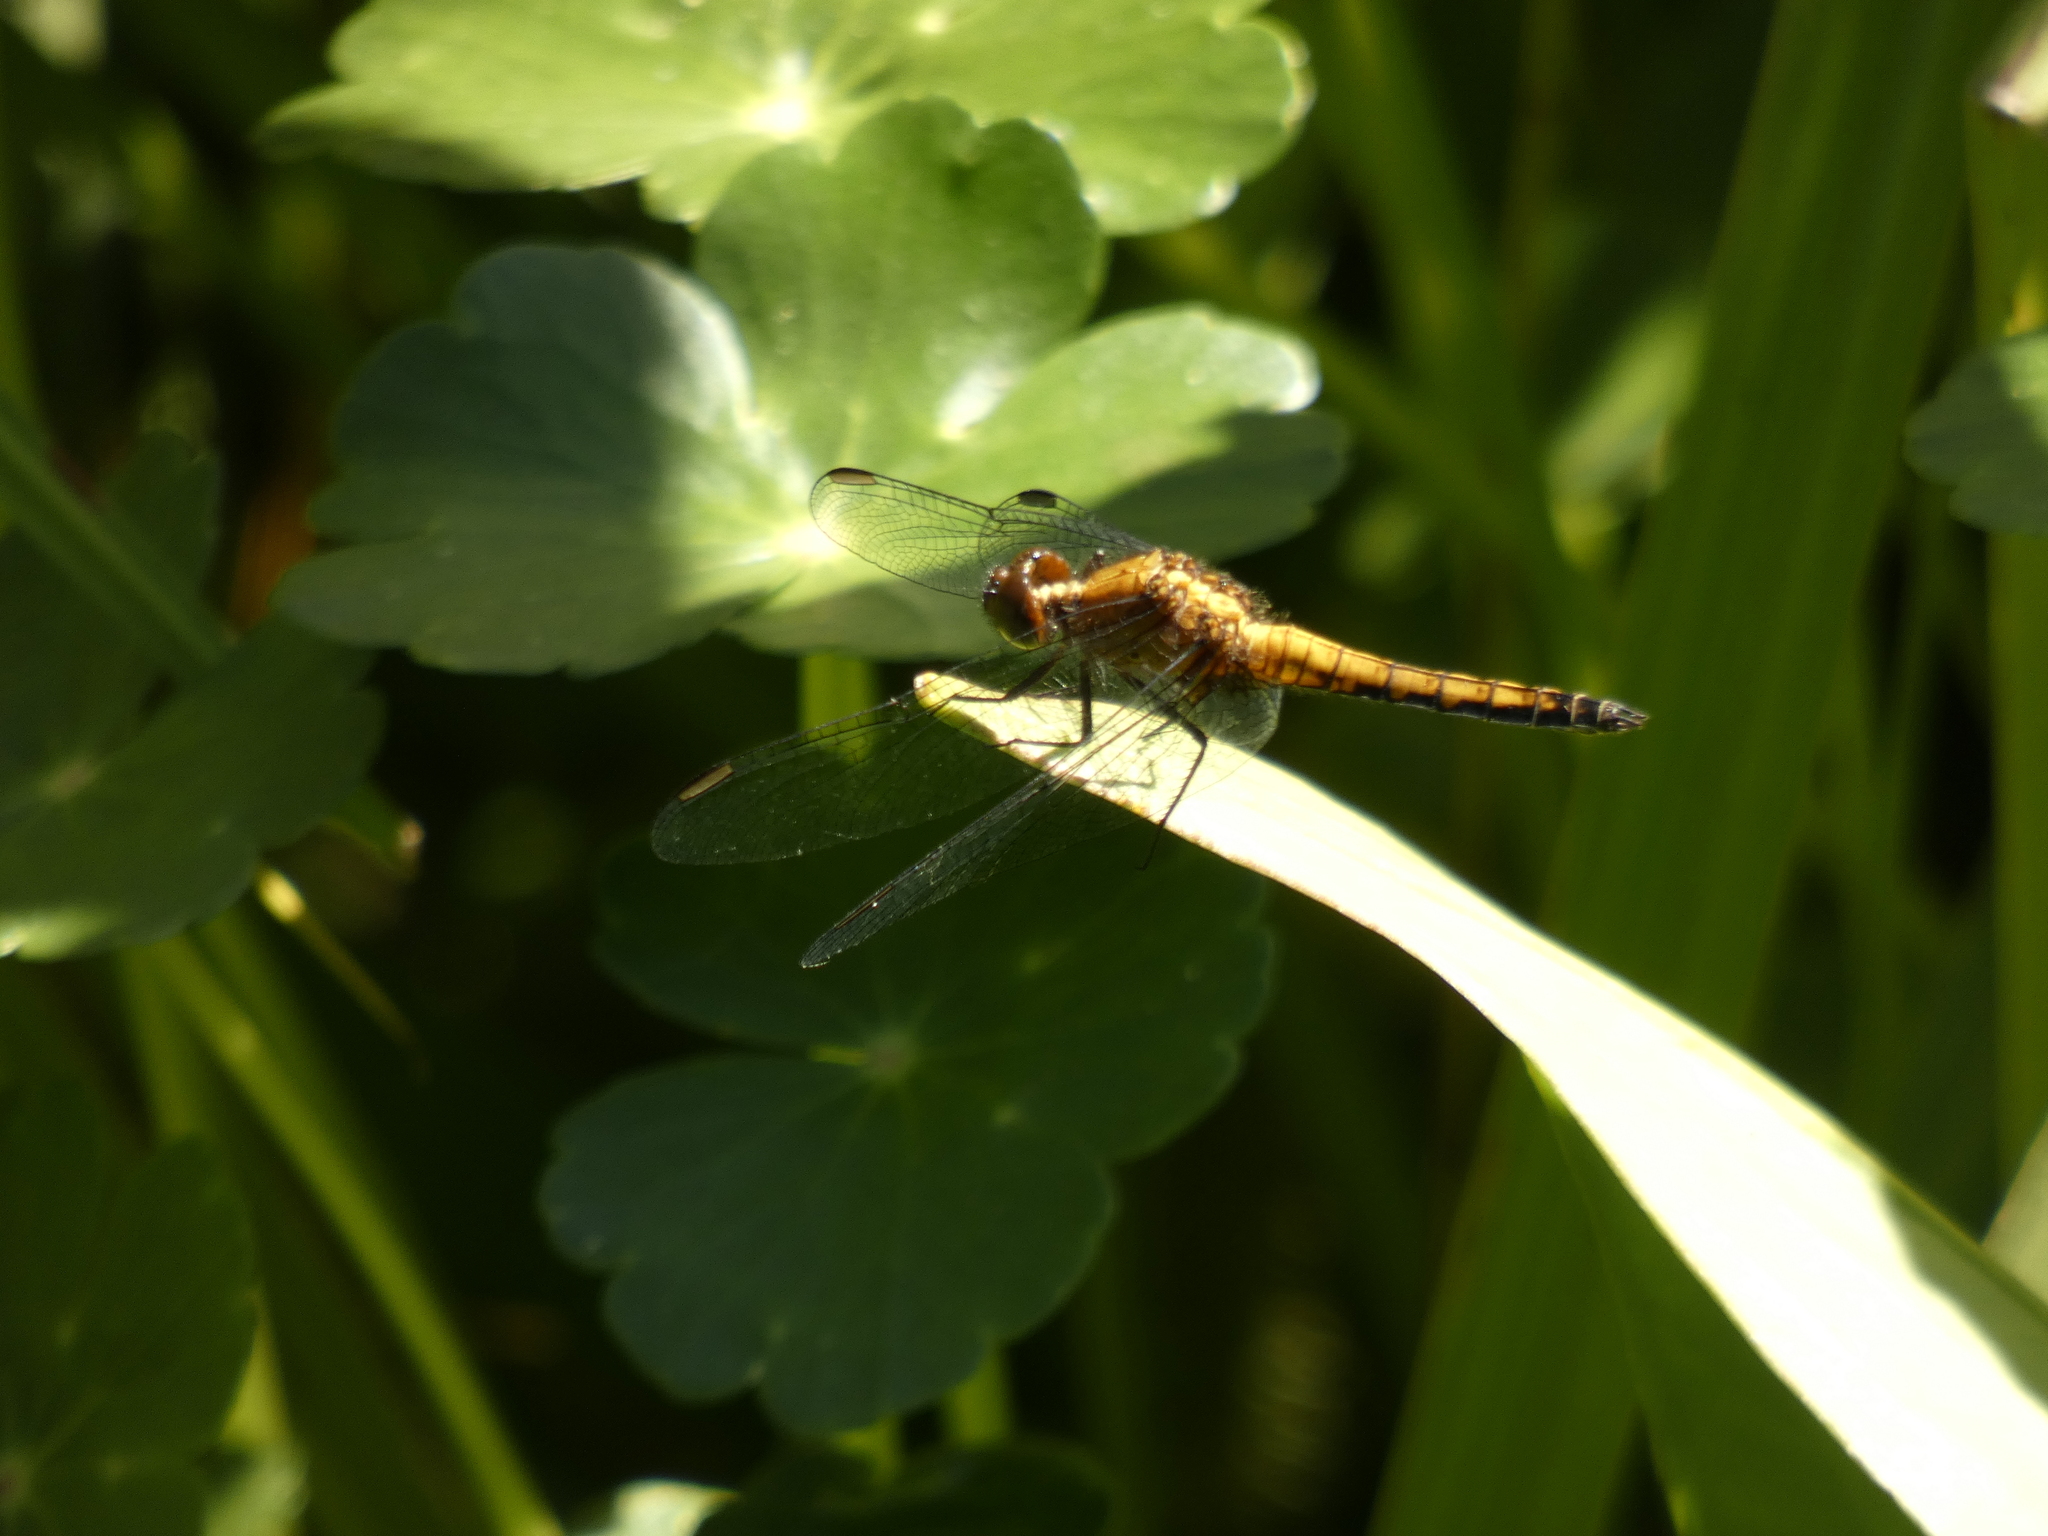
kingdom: Animalia
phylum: Arthropoda
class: Insecta
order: Odonata
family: Libellulidae
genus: Erythrodiplax
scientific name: Erythrodiplax connata
